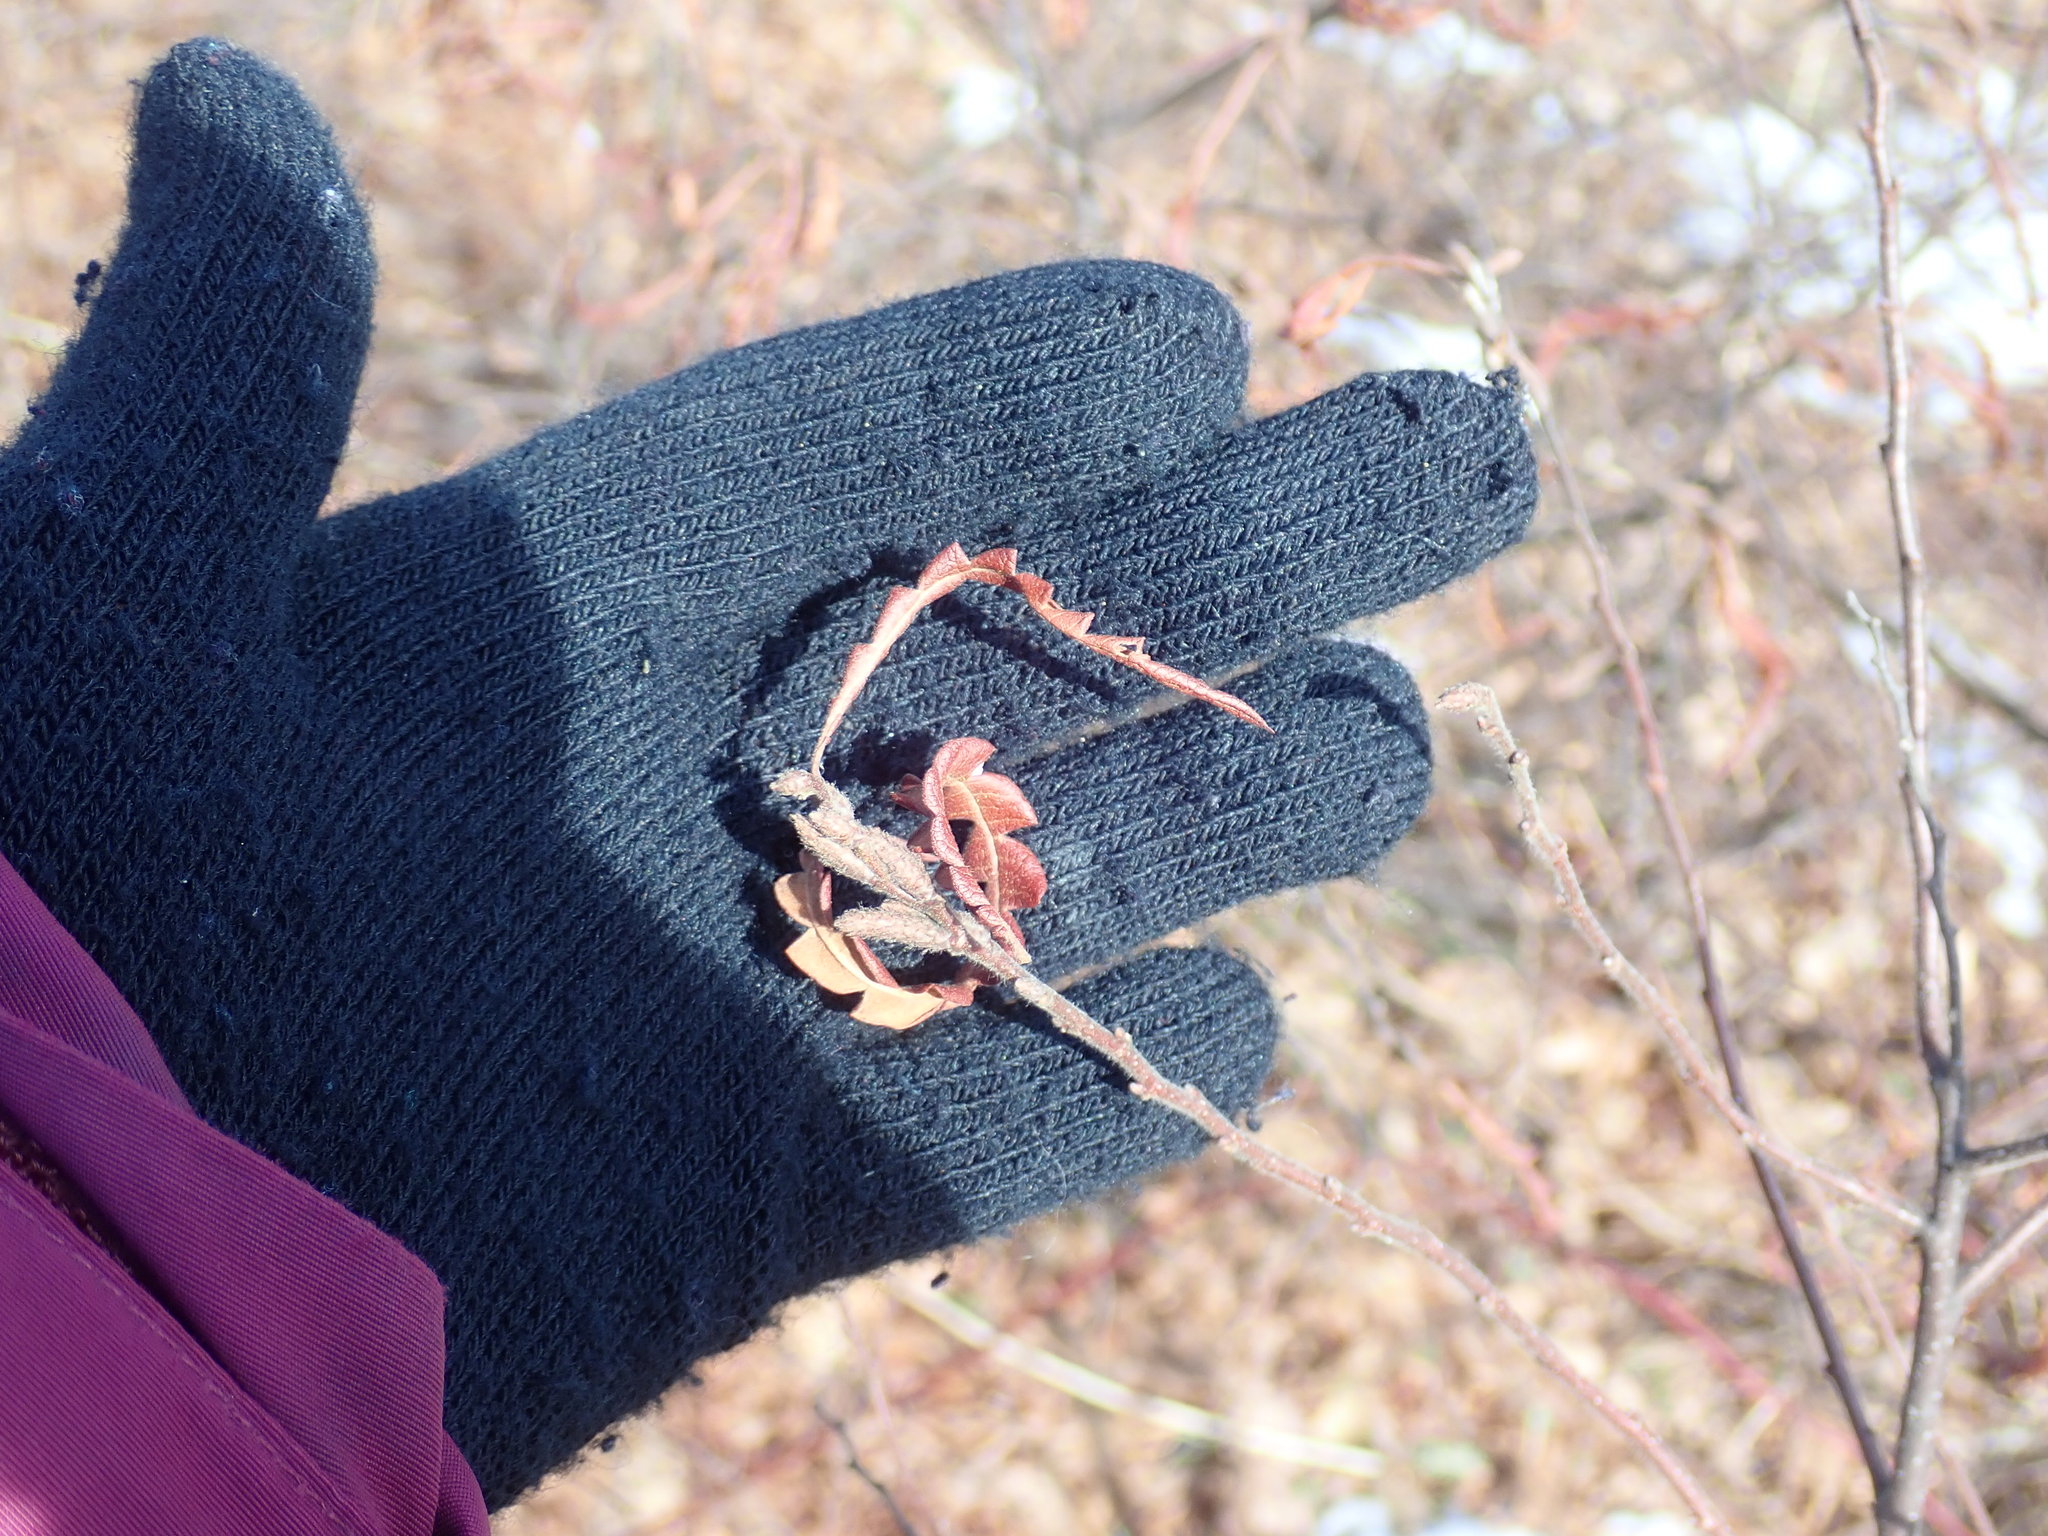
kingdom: Plantae
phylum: Tracheophyta
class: Magnoliopsida
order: Fagales
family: Myricaceae
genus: Comptonia
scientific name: Comptonia peregrina
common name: Sweet-fern
